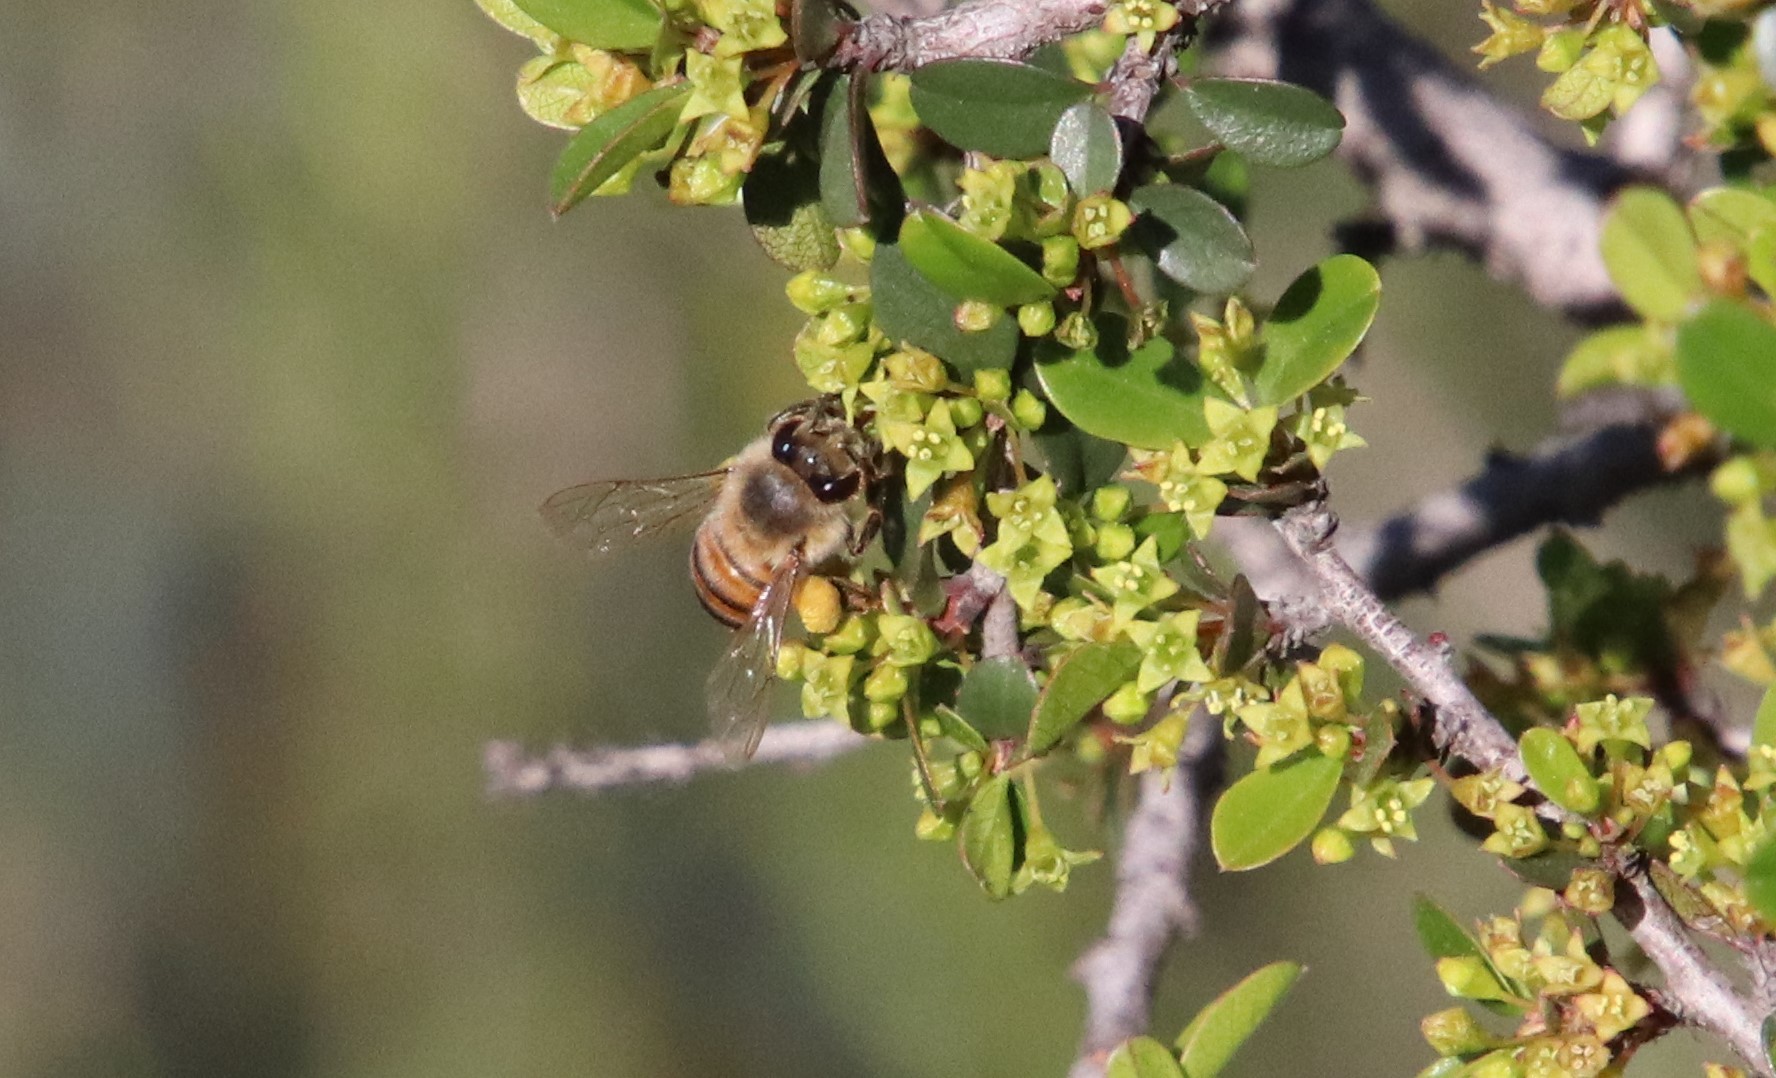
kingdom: Animalia
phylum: Arthropoda
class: Insecta
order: Hymenoptera
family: Apidae
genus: Apis
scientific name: Apis mellifera
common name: Honey bee
